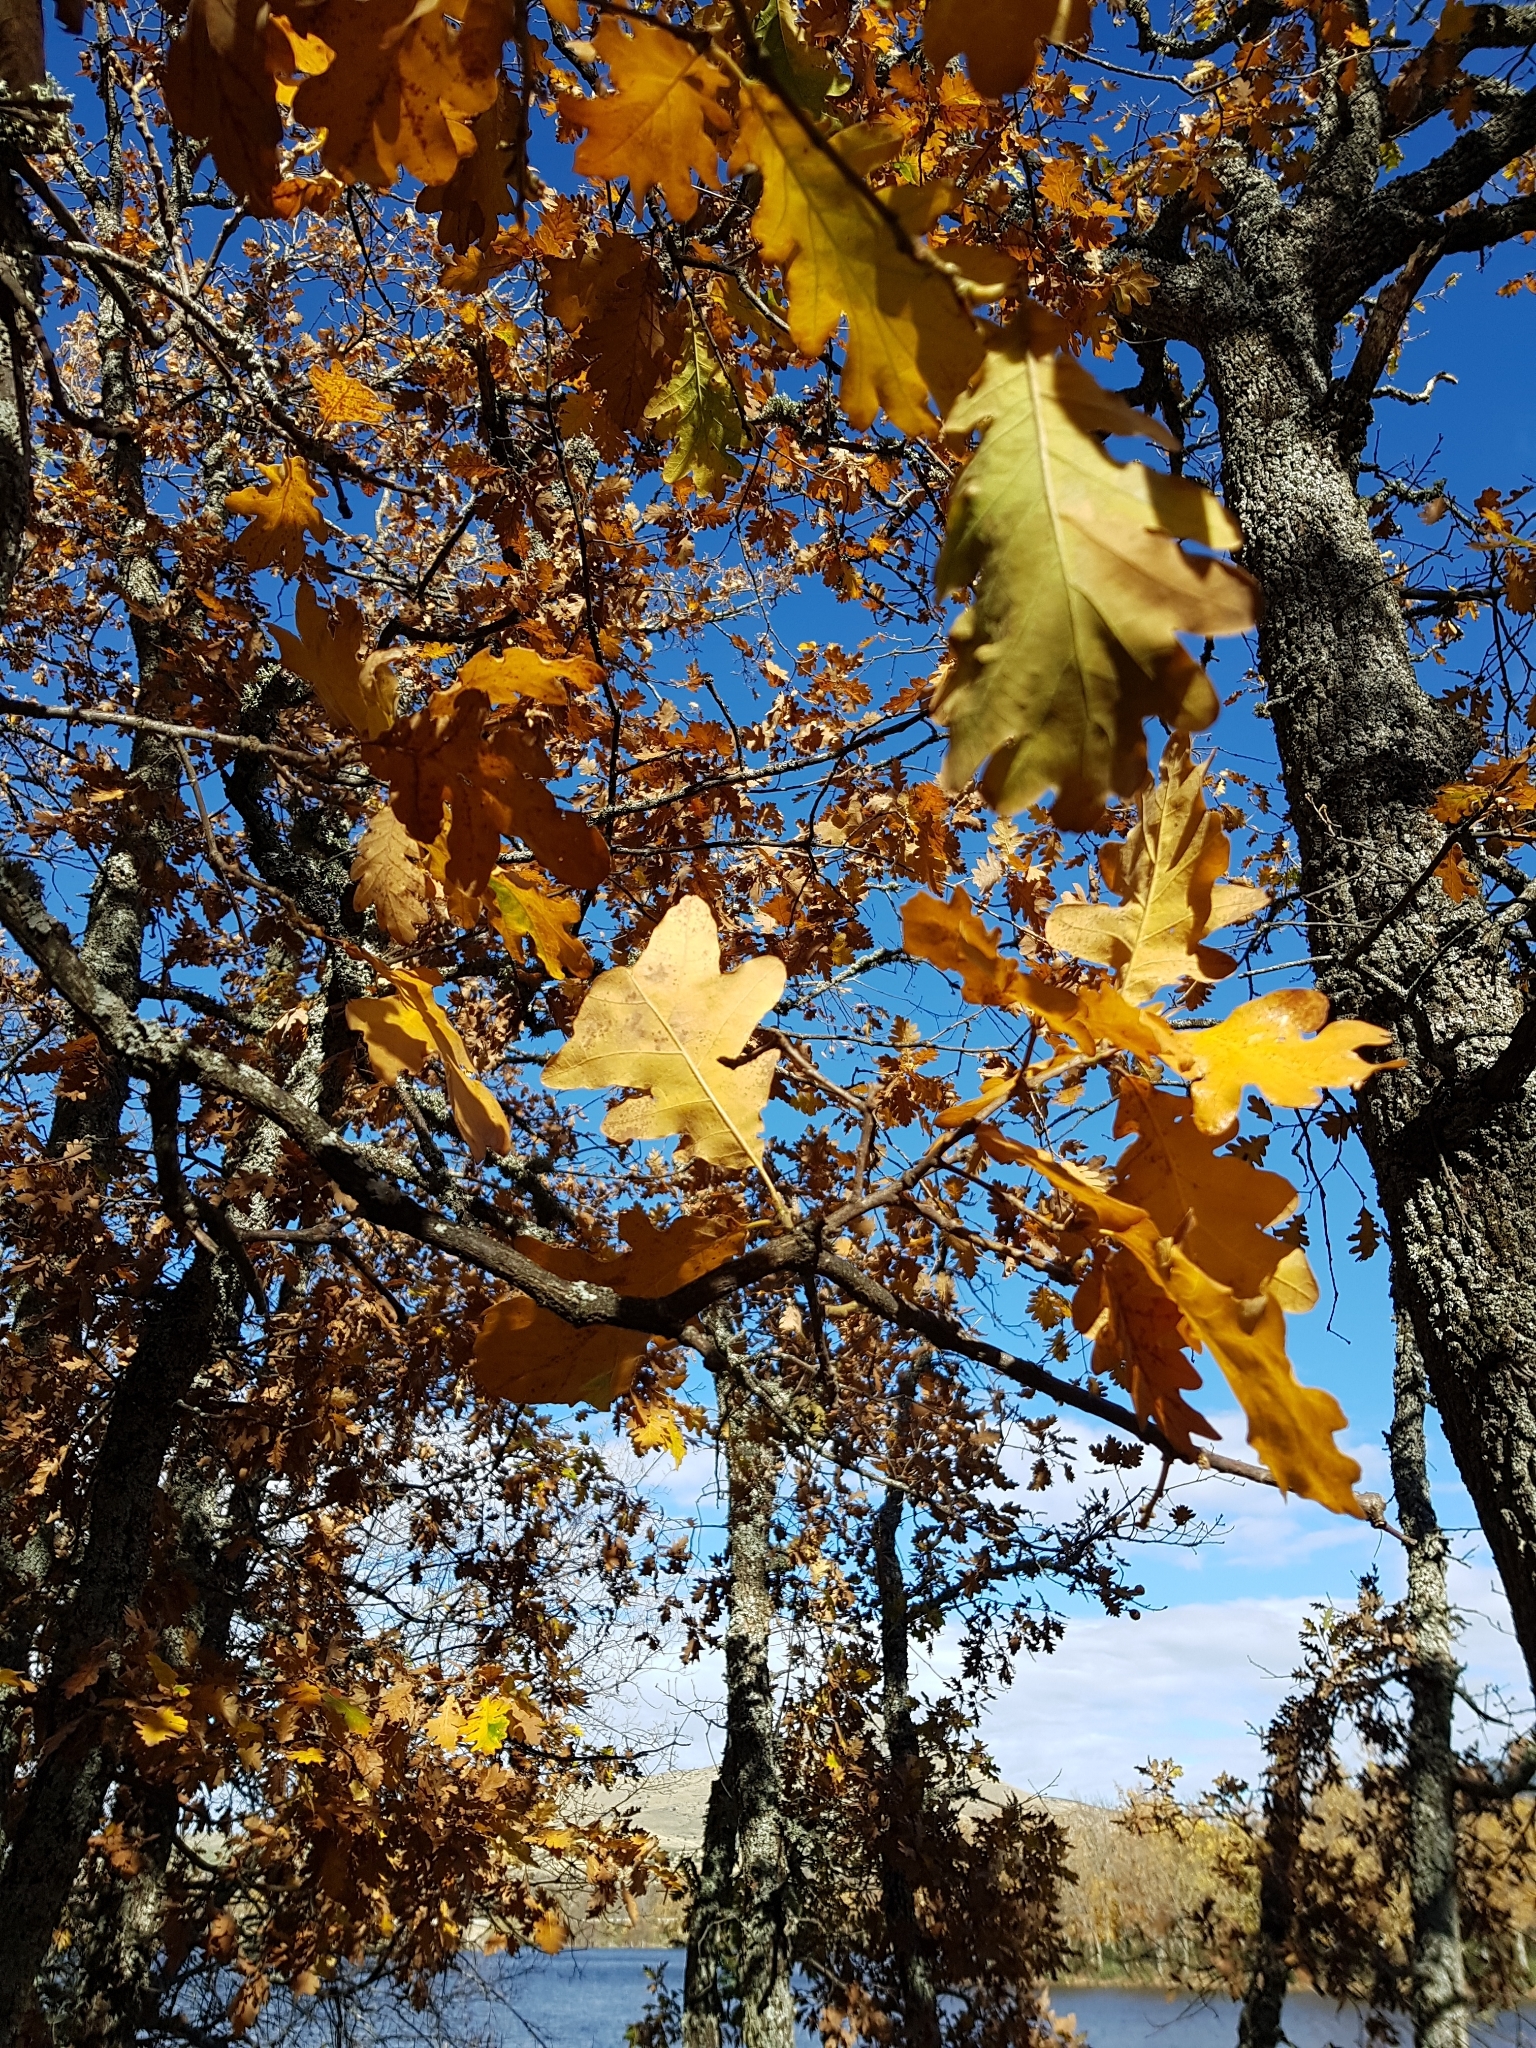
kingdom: Plantae
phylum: Tracheophyta
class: Magnoliopsida
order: Fagales
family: Fagaceae
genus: Quercus
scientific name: Quercus pyrenaica
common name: Pyrenean oak
